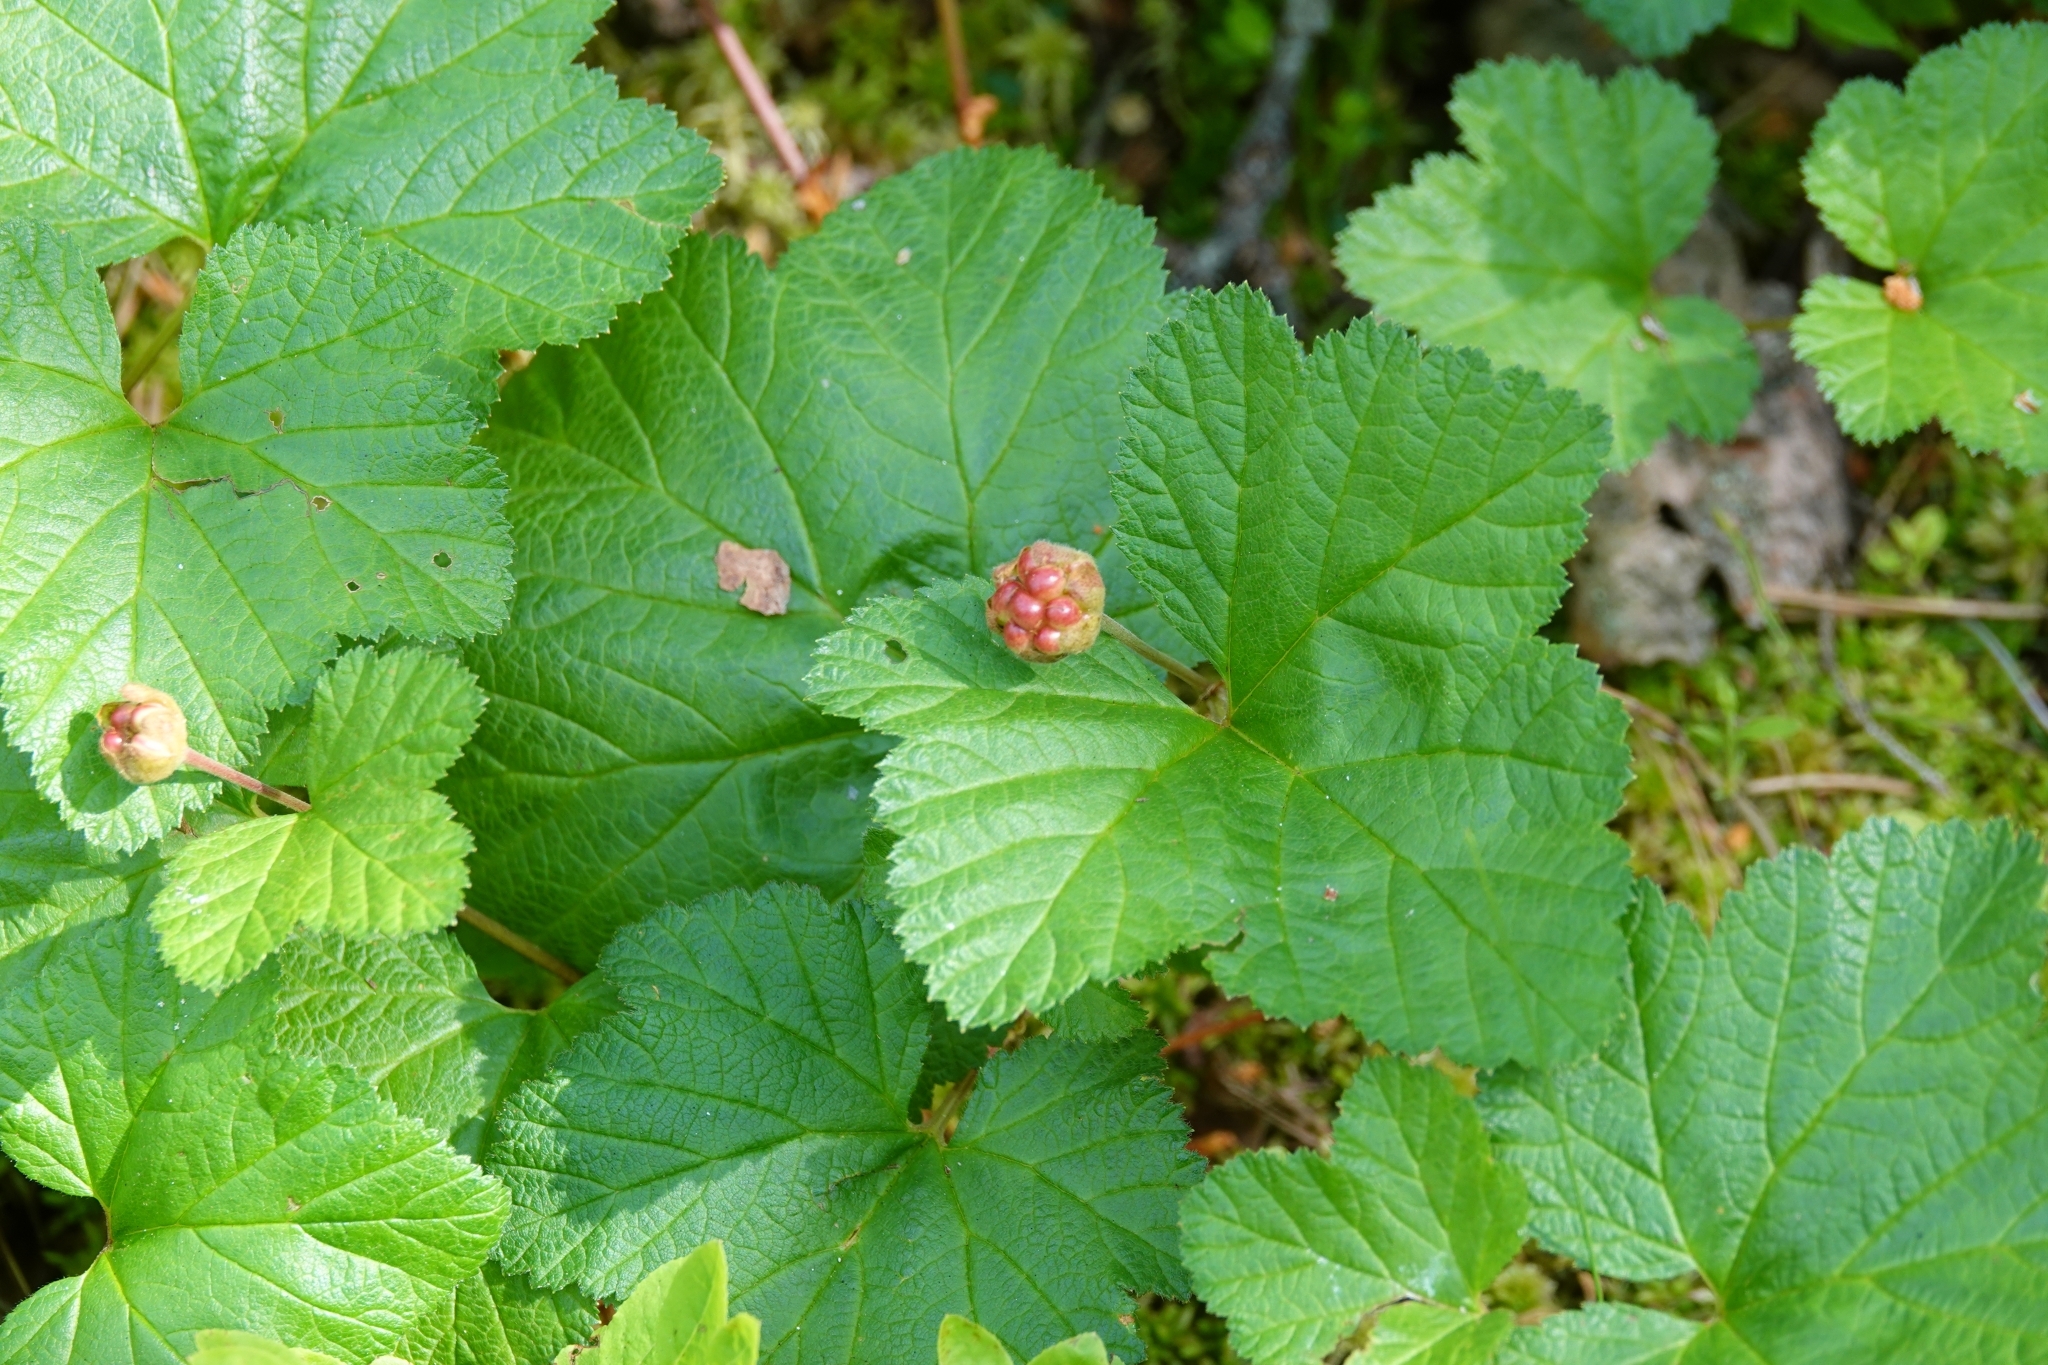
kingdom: Plantae
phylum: Tracheophyta
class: Magnoliopsida
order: Rosales
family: Rosaceae
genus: Rubus
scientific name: Rubus chamaemorus
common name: Cloudberry
